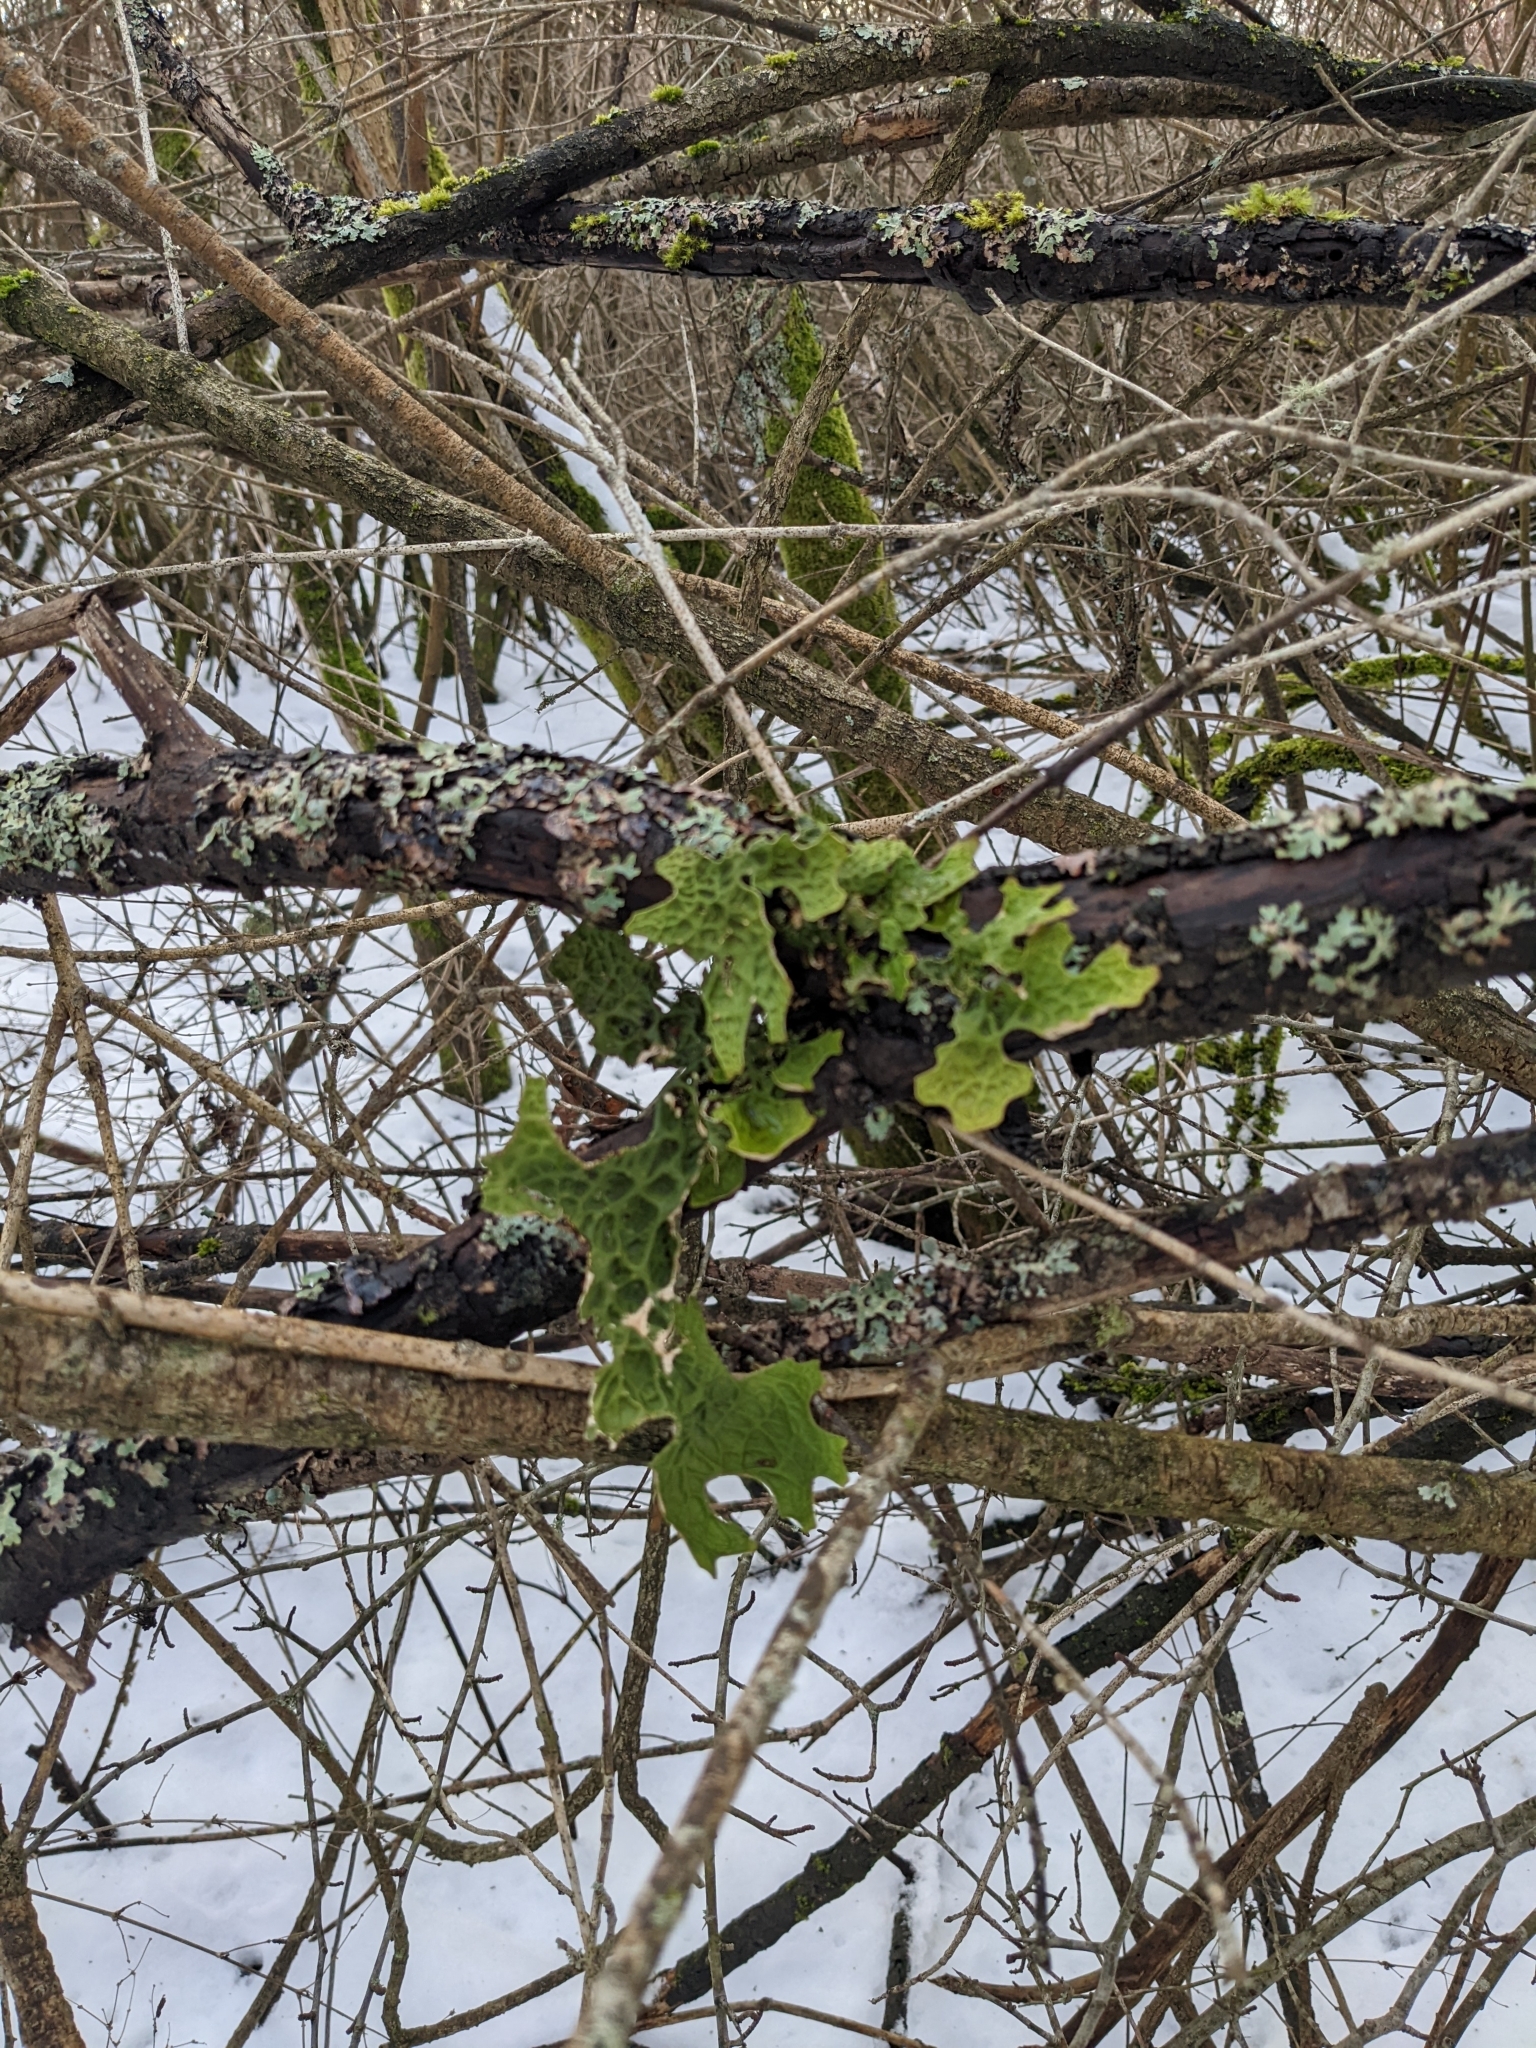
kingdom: Fungi
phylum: Ascomycota
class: Lecanoromycetes
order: Peltigerales
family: Lobariaceae
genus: Lobaria
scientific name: Lobaria pulmonaria
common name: Lungwort
